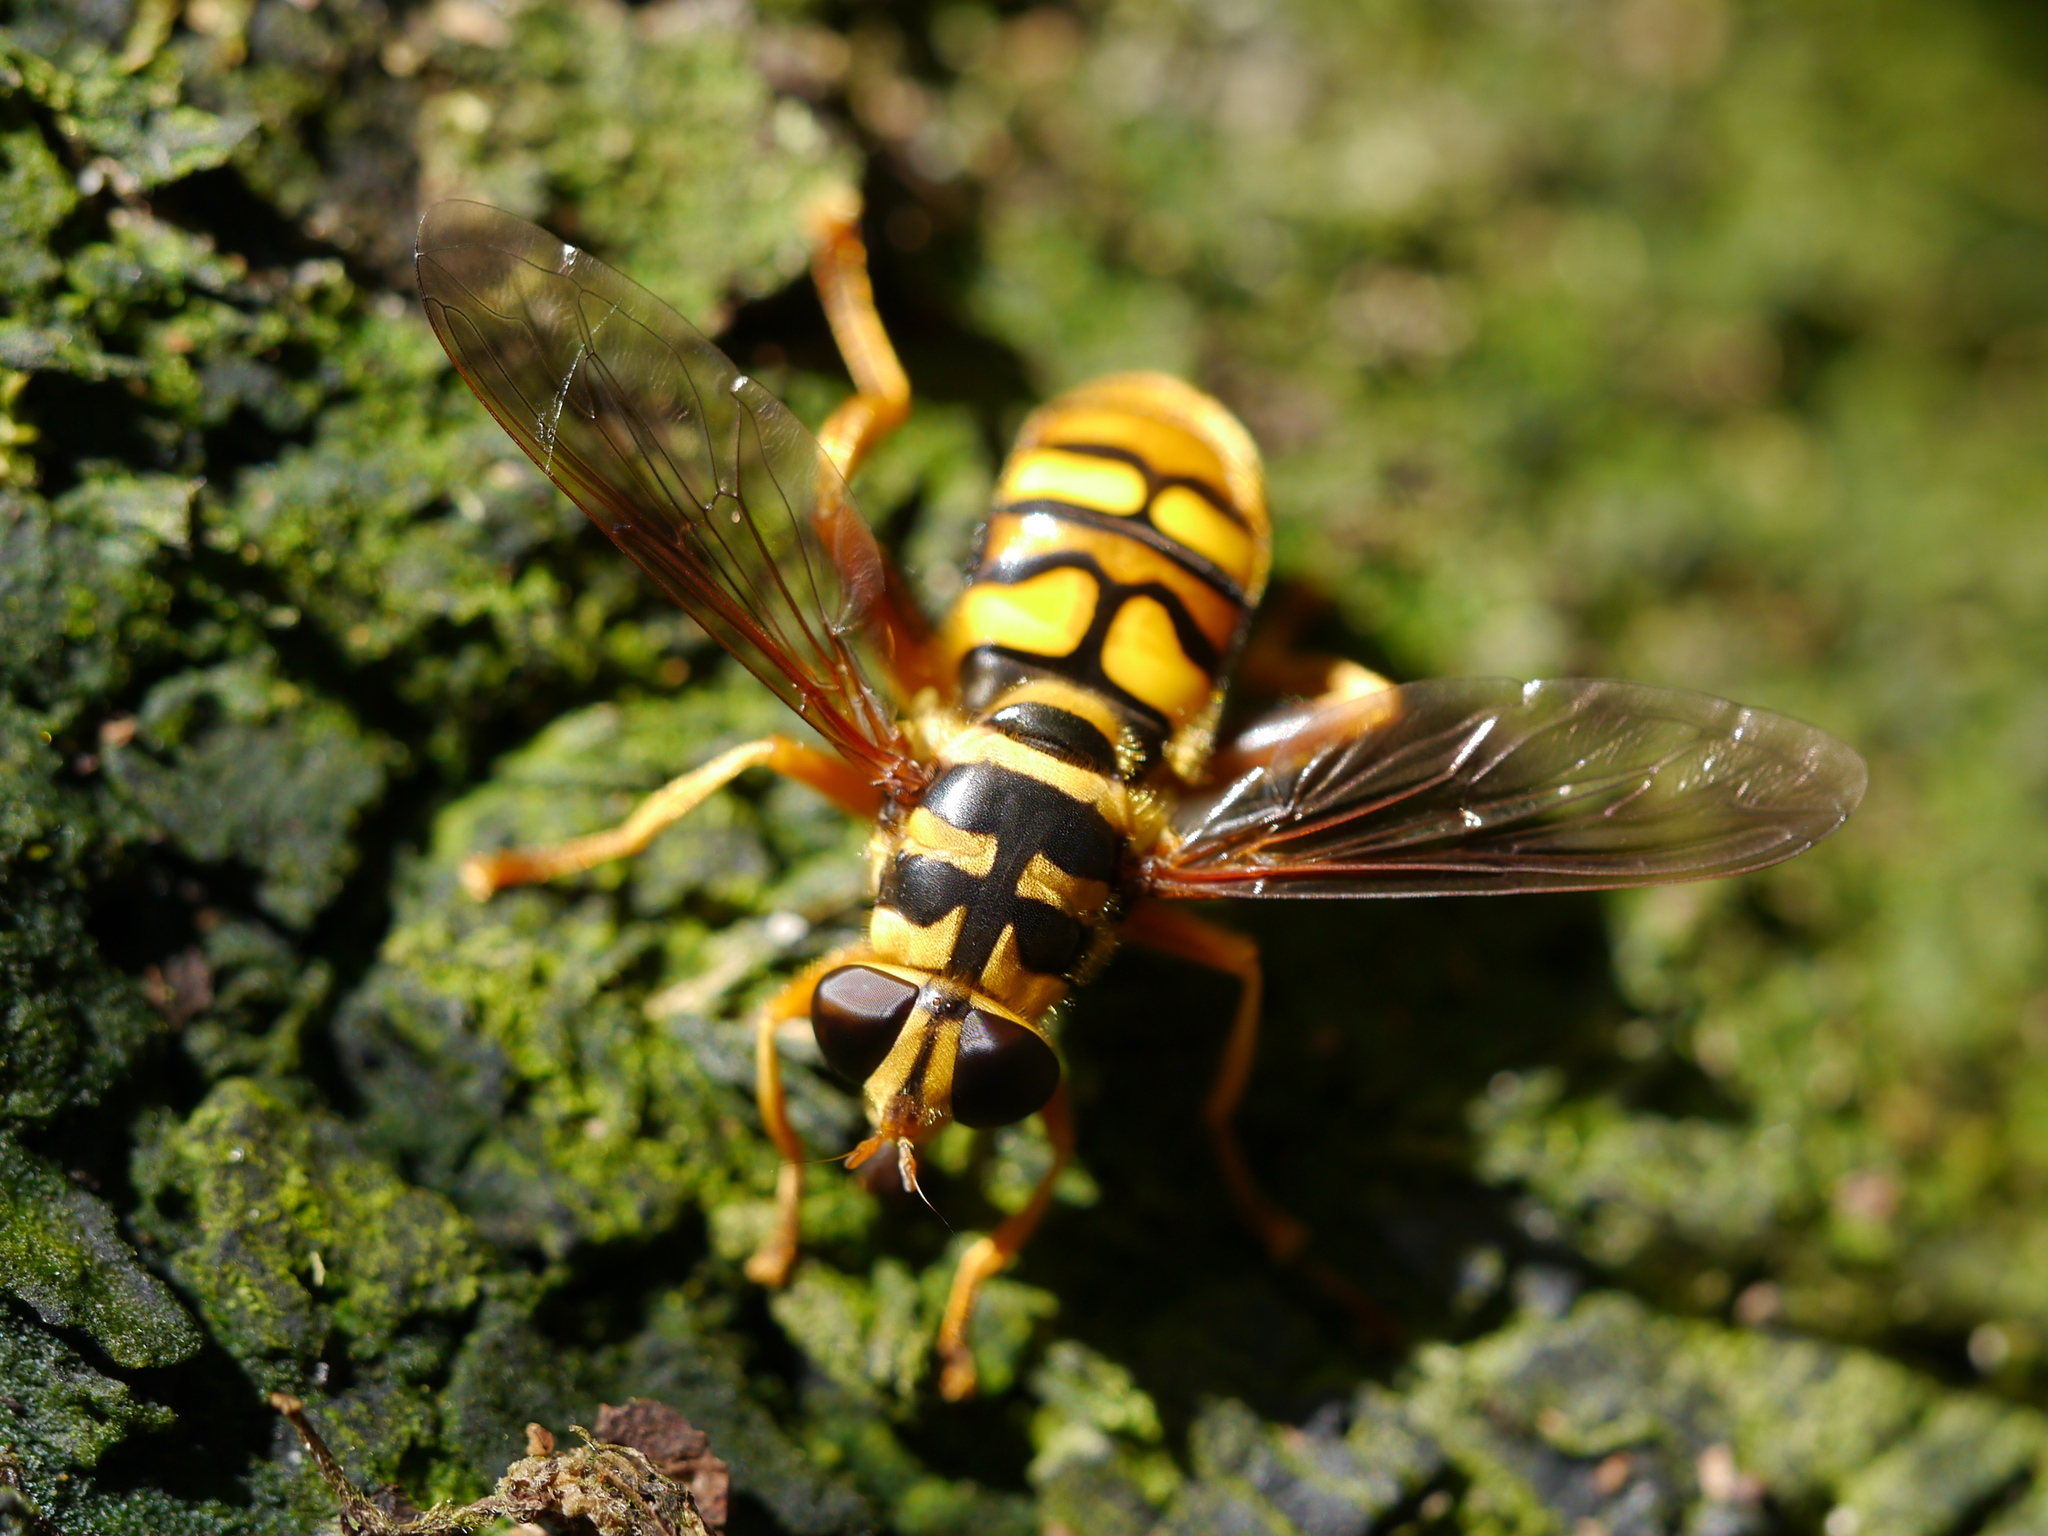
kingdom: Animalia
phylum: Arthropoda
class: Insecta
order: Diptera
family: Syrphidae
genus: Milesia
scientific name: Milesia virginiensis
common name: Virginia giant
